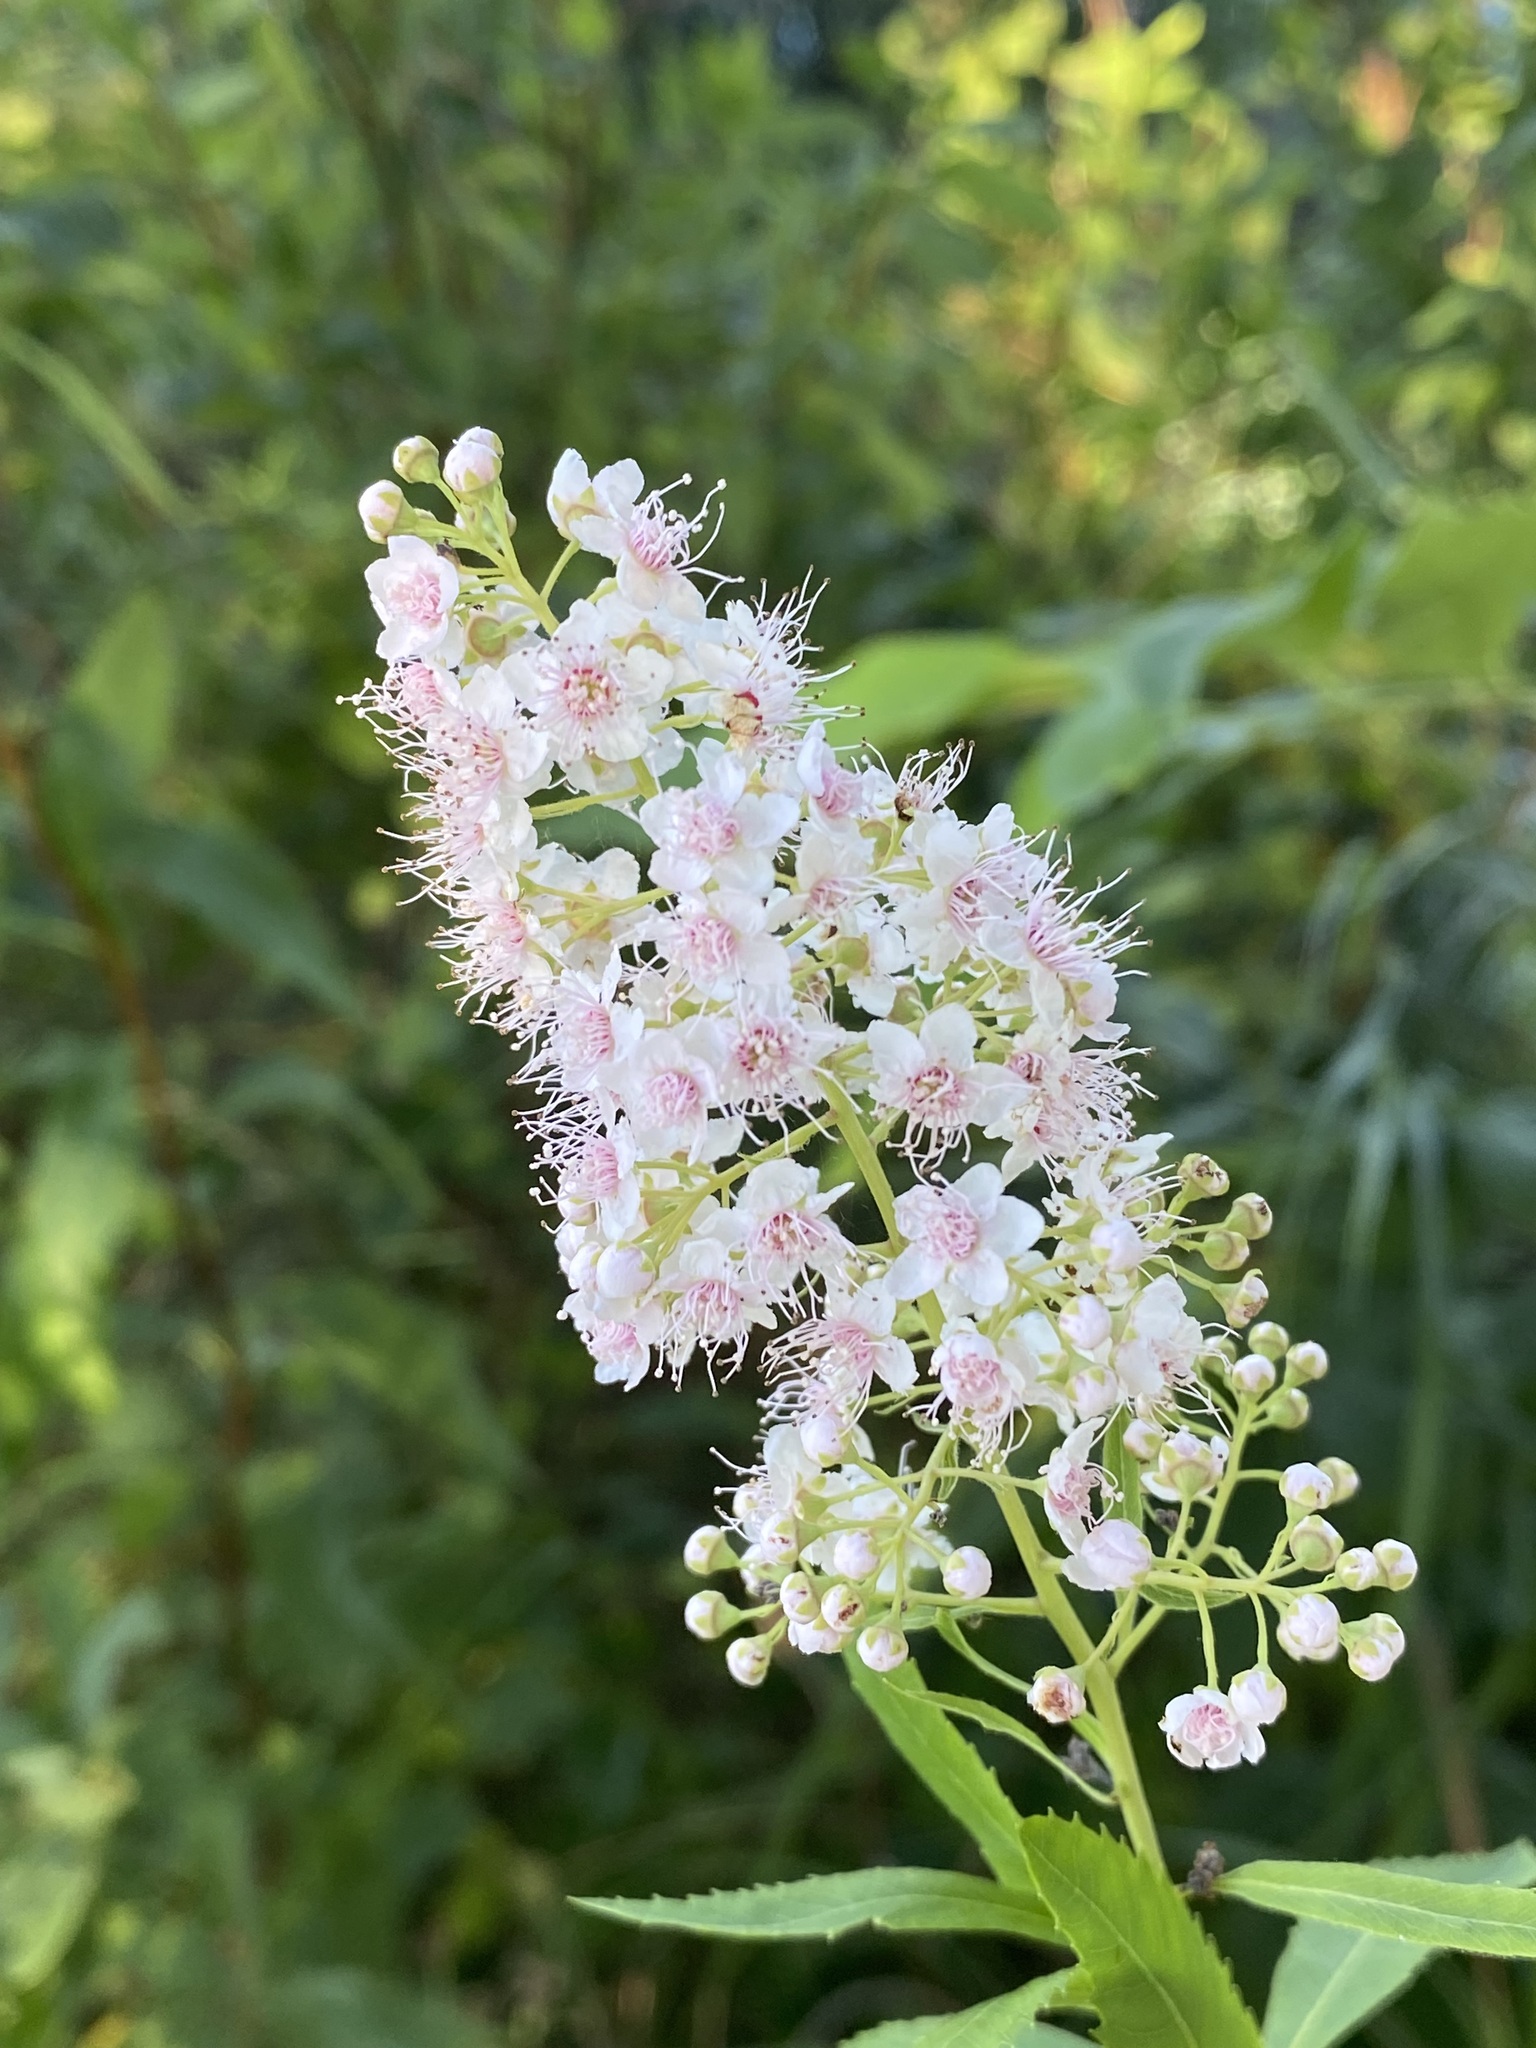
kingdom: Plantae
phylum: Tracheophyta
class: Magnoliopsida
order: Rosales
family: Rosaceae
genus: Spiraea
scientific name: Spiraea alba
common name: Pale bridewort
